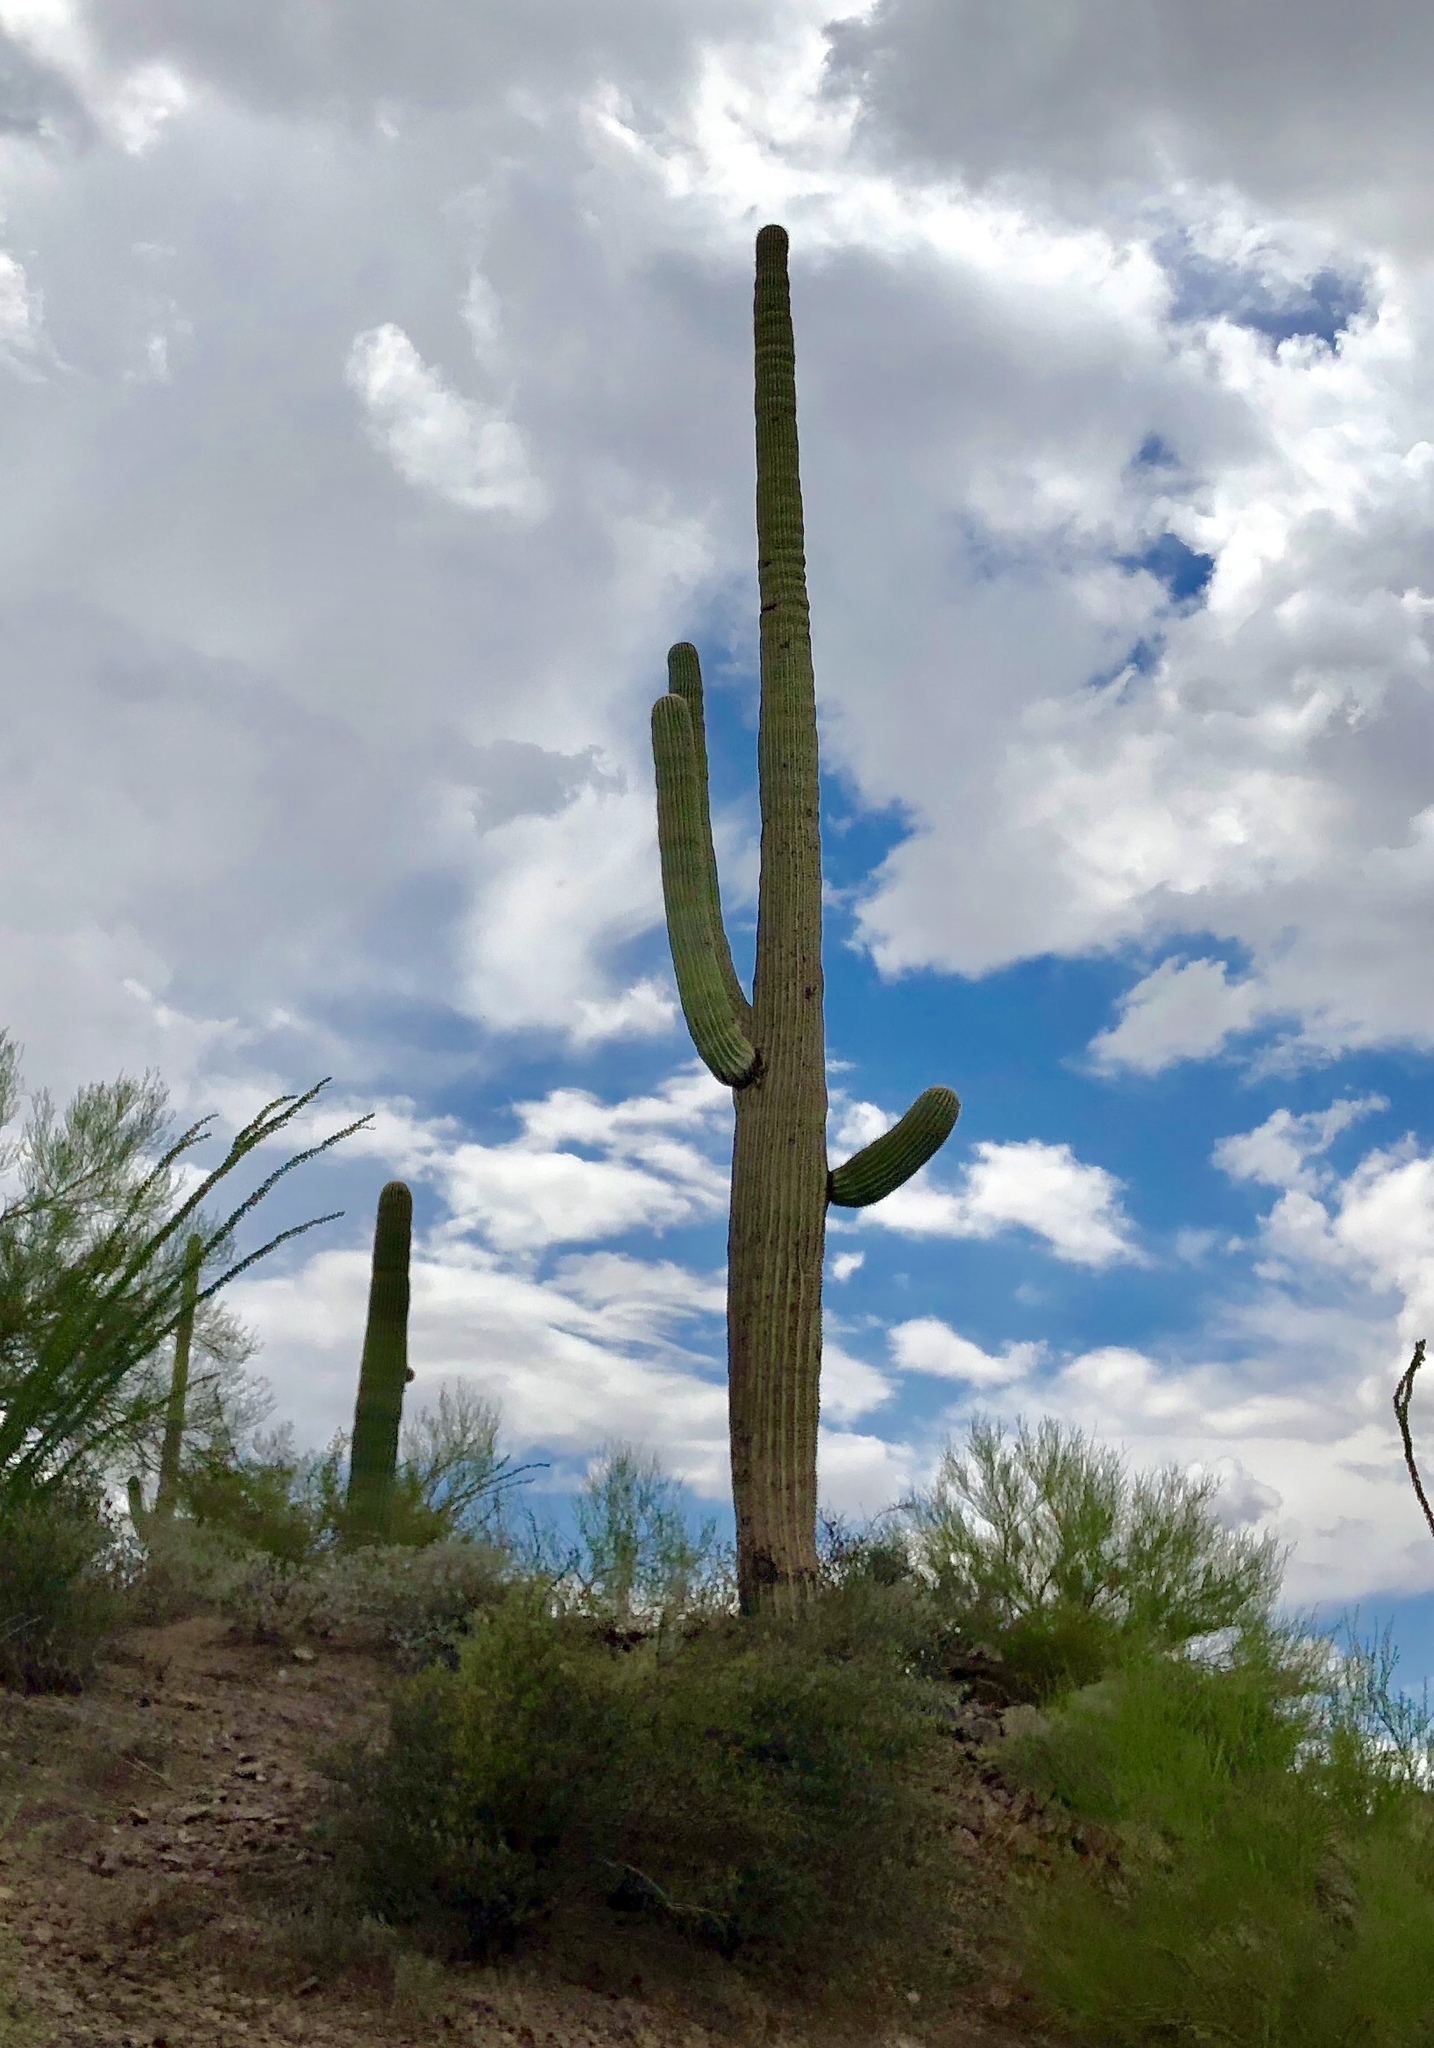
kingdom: Plantae
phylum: Tracheophyta
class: Magnoliopsida
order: Caryophyllales
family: Cactaceae
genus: Carnegiea
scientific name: Carnegiea gigantea
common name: Saguaro
